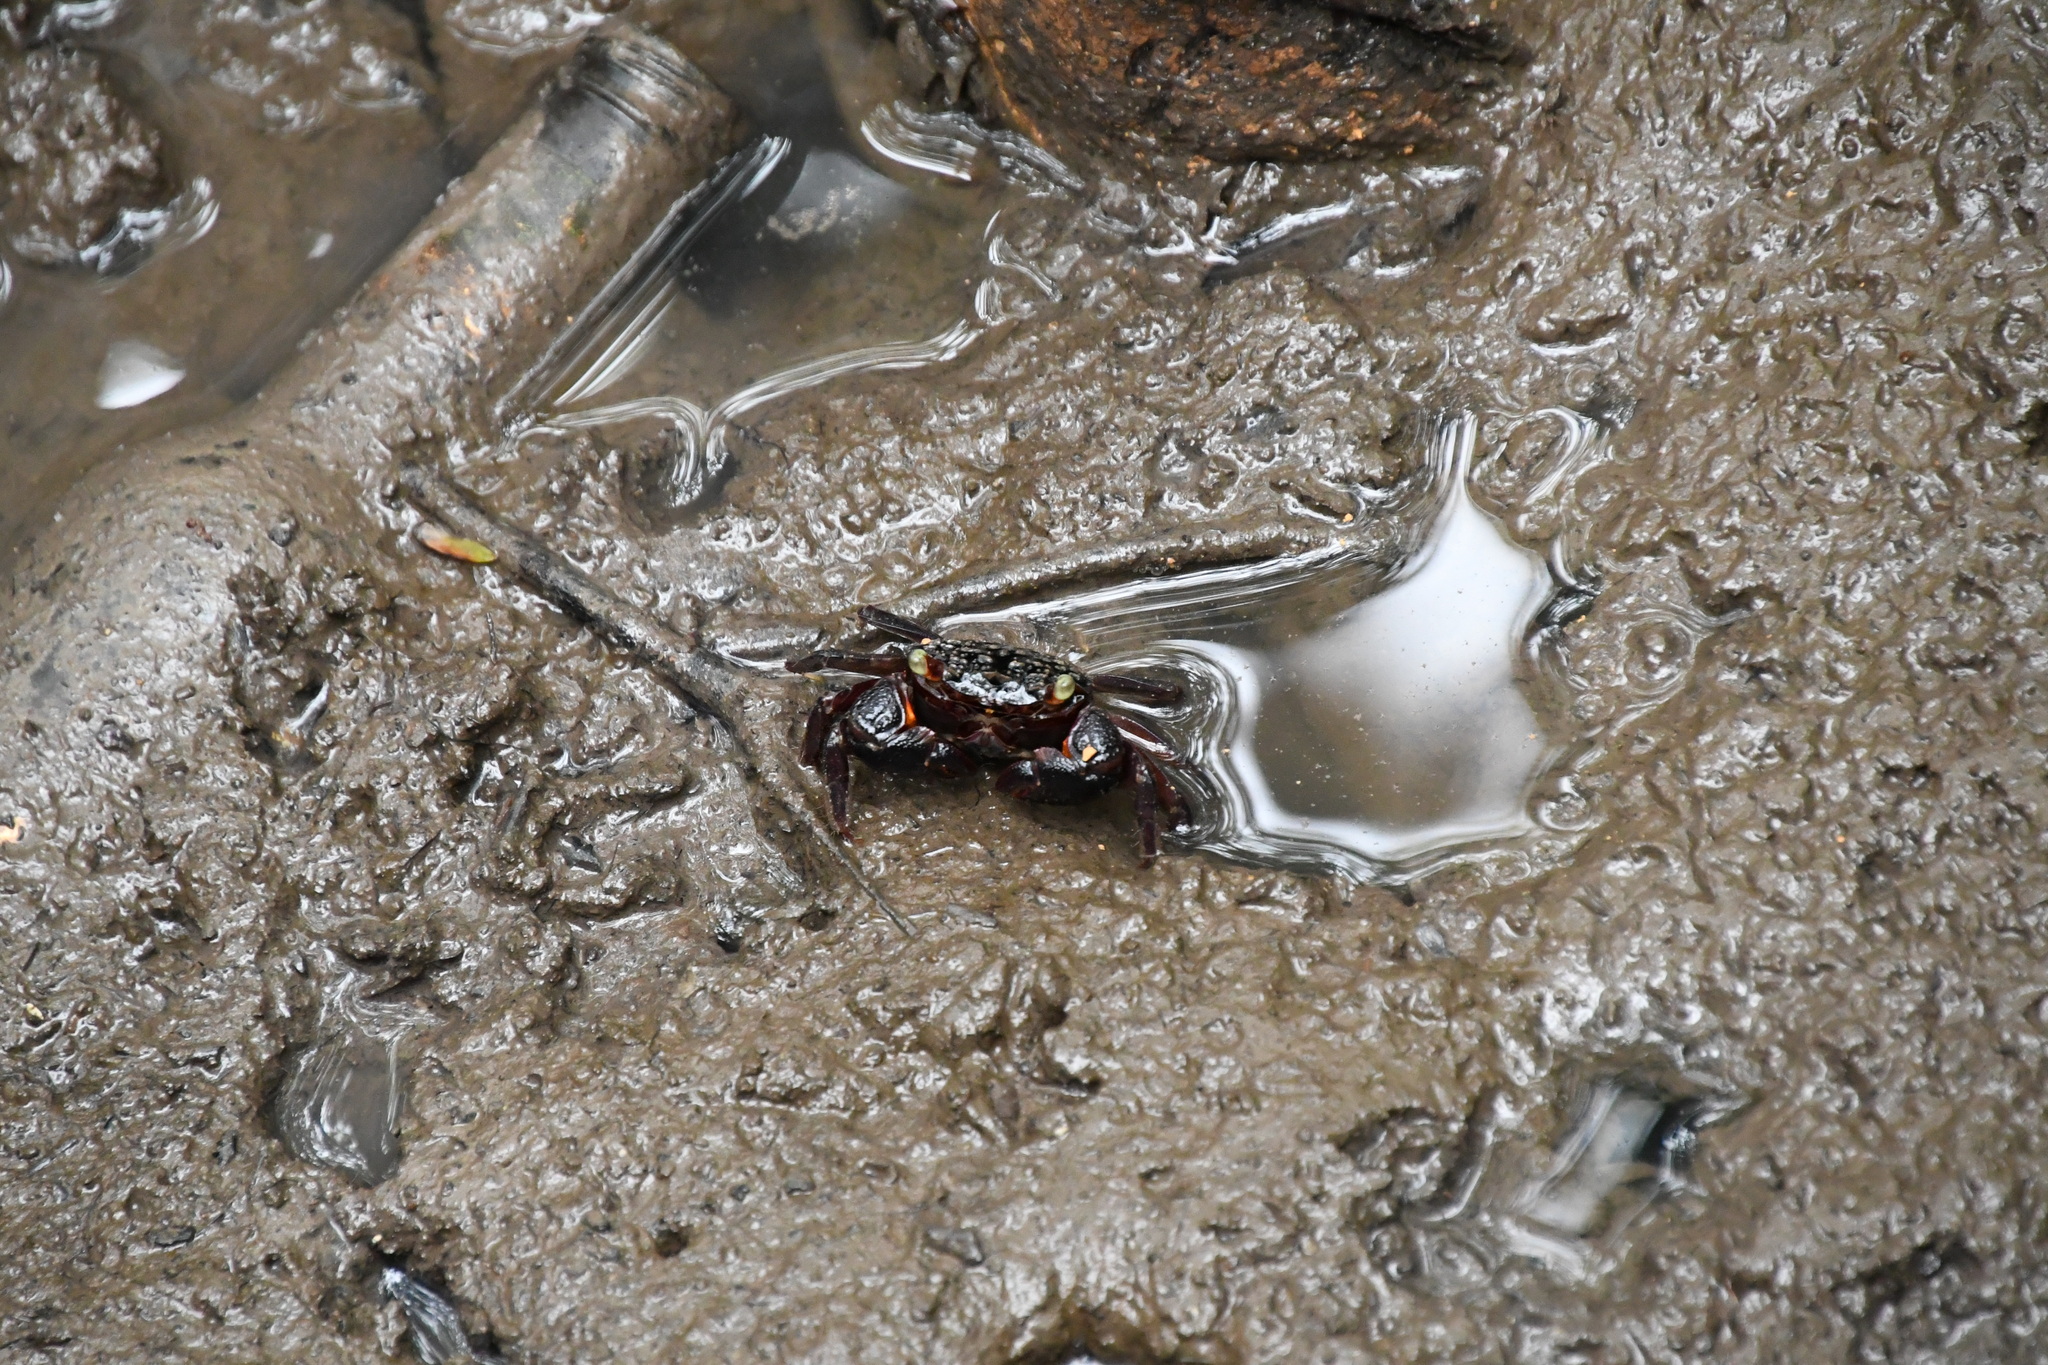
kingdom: Animalia
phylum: Arthropoda
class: Malacostraca
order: Decapoda
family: Sesarmidae
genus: Parasesarma
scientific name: Parasesarma messa
